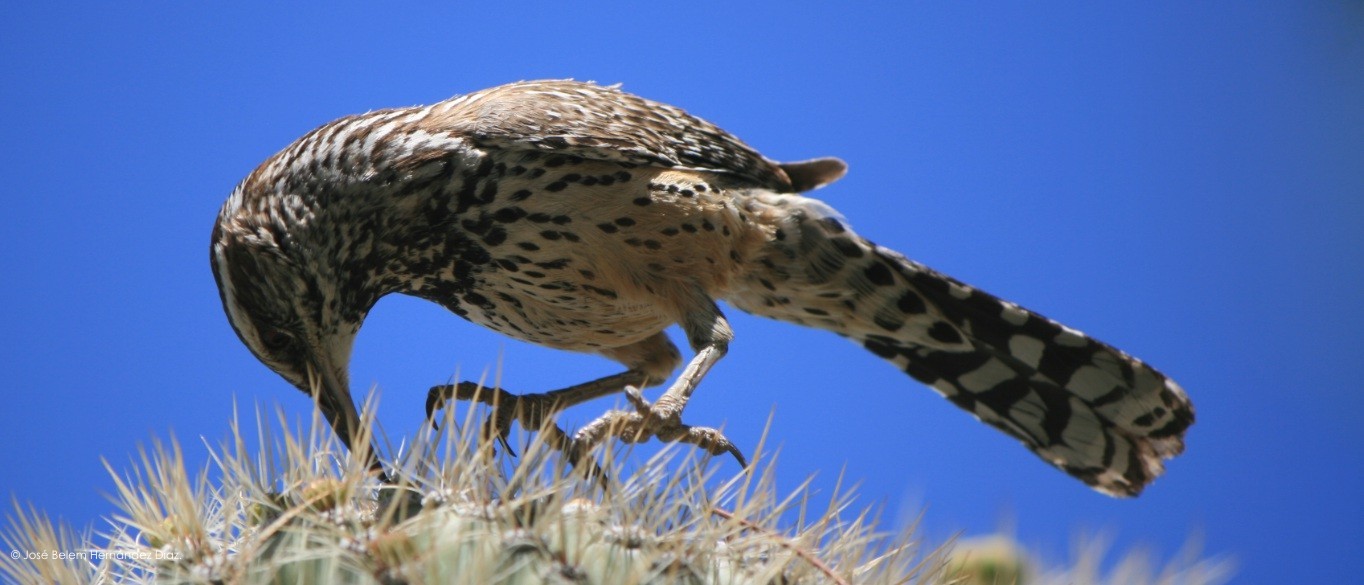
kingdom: Animalia
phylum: Chordata
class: Aves
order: Passeriformes
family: Troglodytidae
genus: Campylorhynchus
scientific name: Campylorhynchus brunneicapillus
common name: Cactus wren
